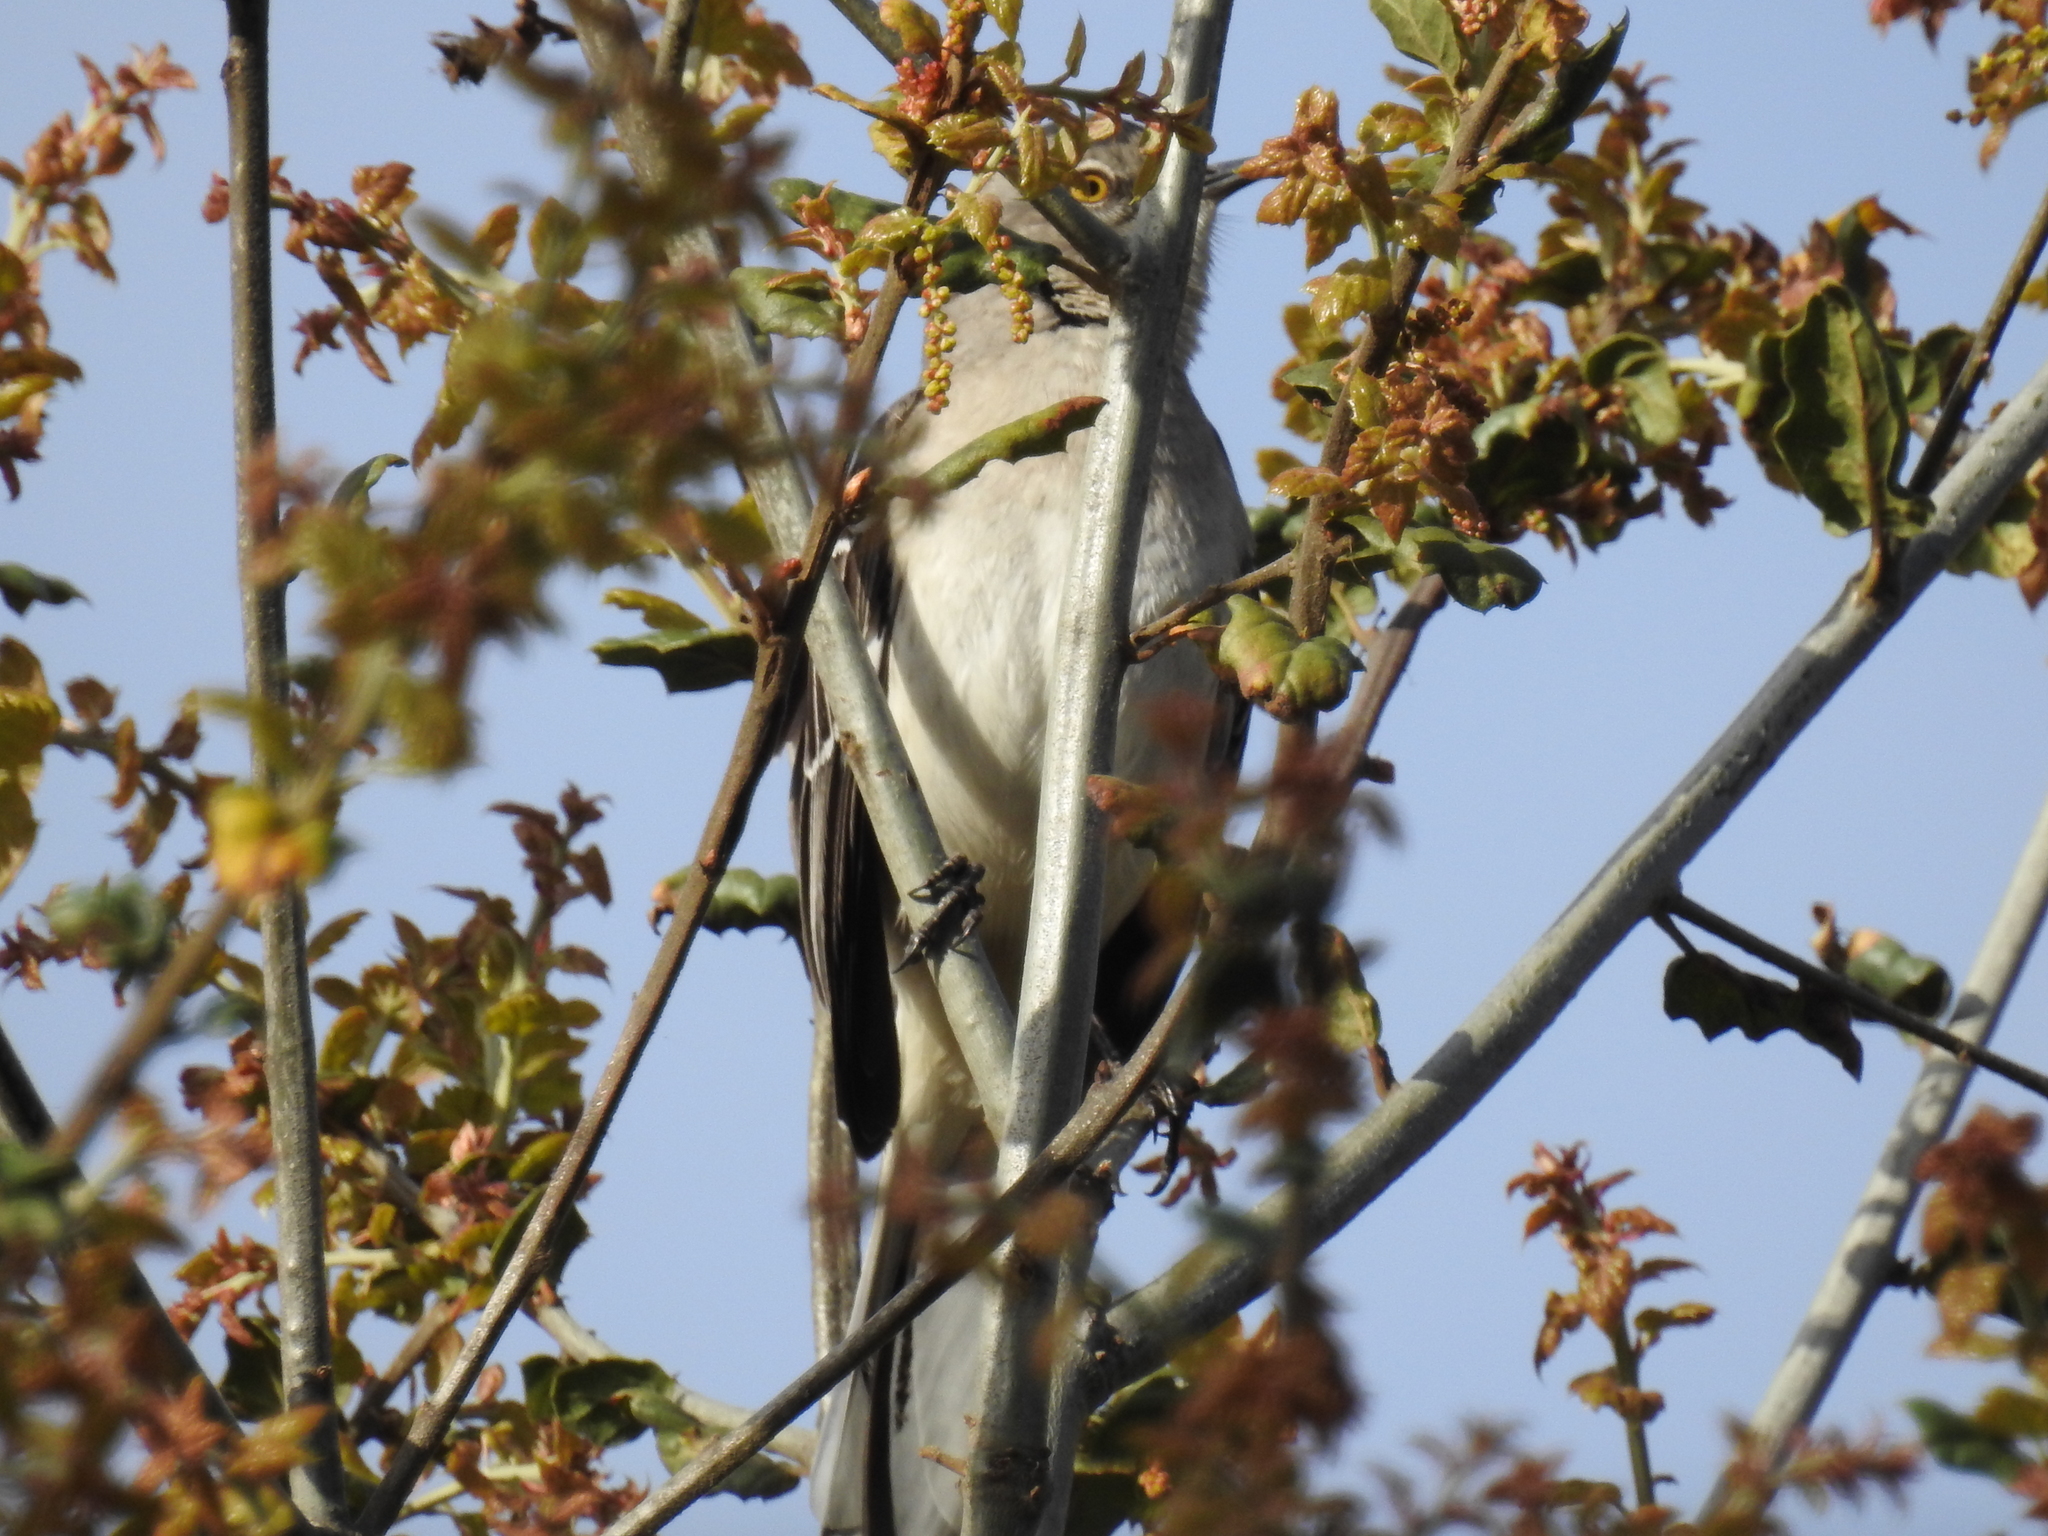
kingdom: Animalia
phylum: Chordata
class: Aves
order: Passeriformes
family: Mimidae
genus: Mimus
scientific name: Mimus polyglottos
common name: Northern mockingbird
